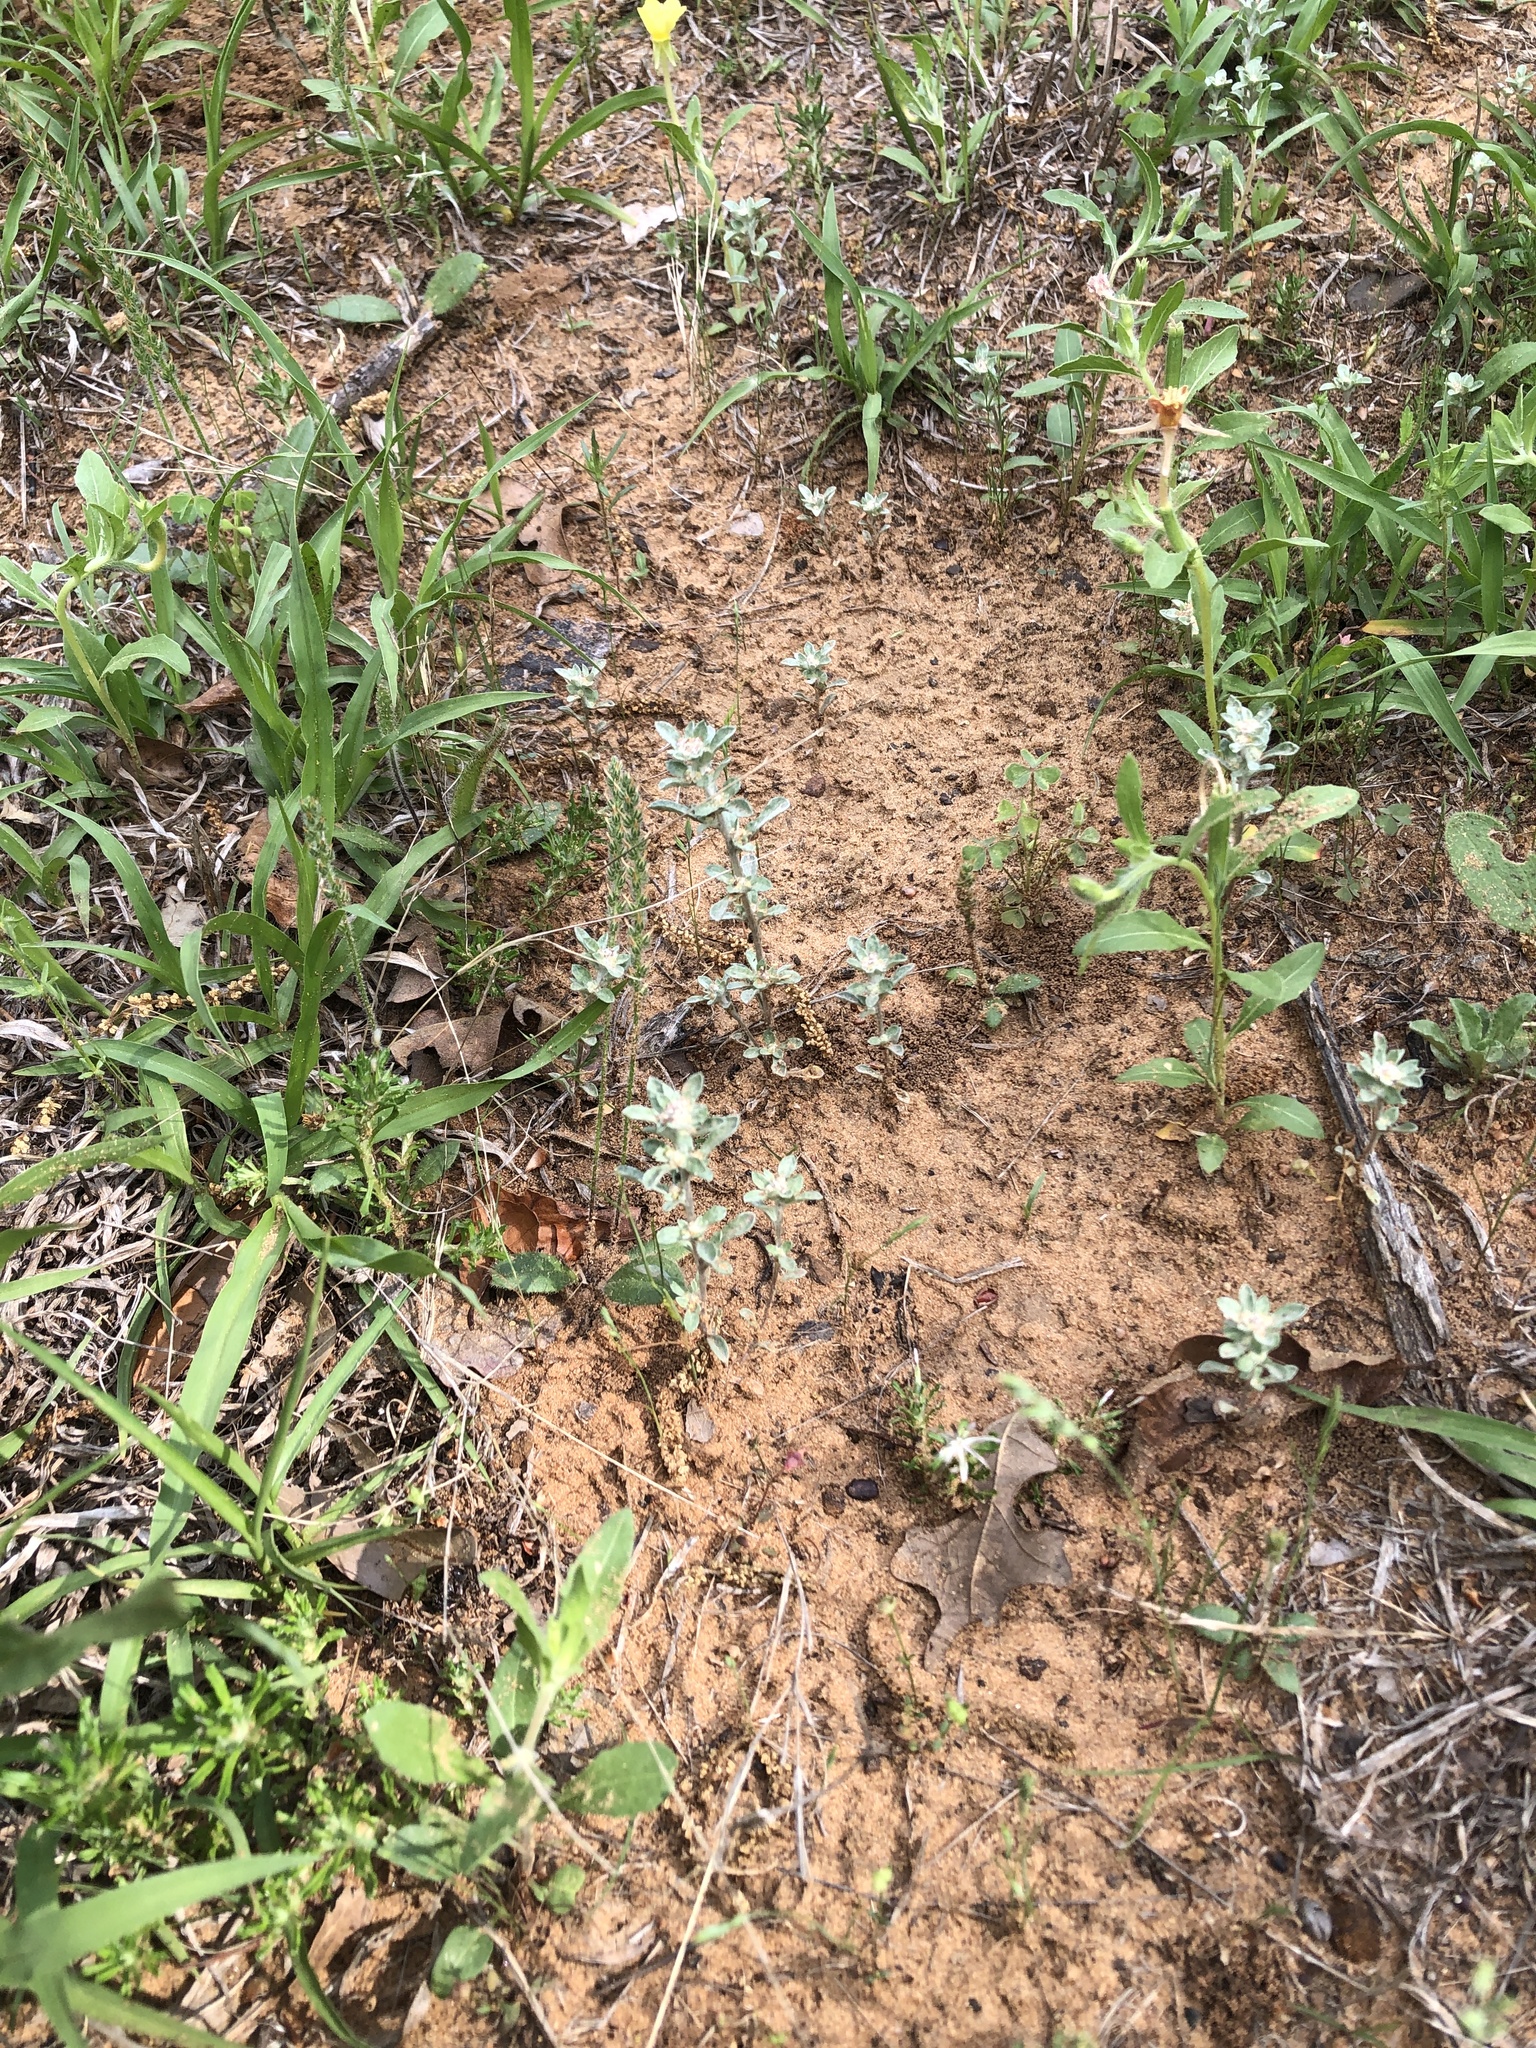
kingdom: Plantae
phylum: Tracheophyta
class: Magnoliopsida
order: Asterales
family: Asteraceae
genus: Diaperia
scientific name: Diaperia candida
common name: Silver rabbit-tobacco
